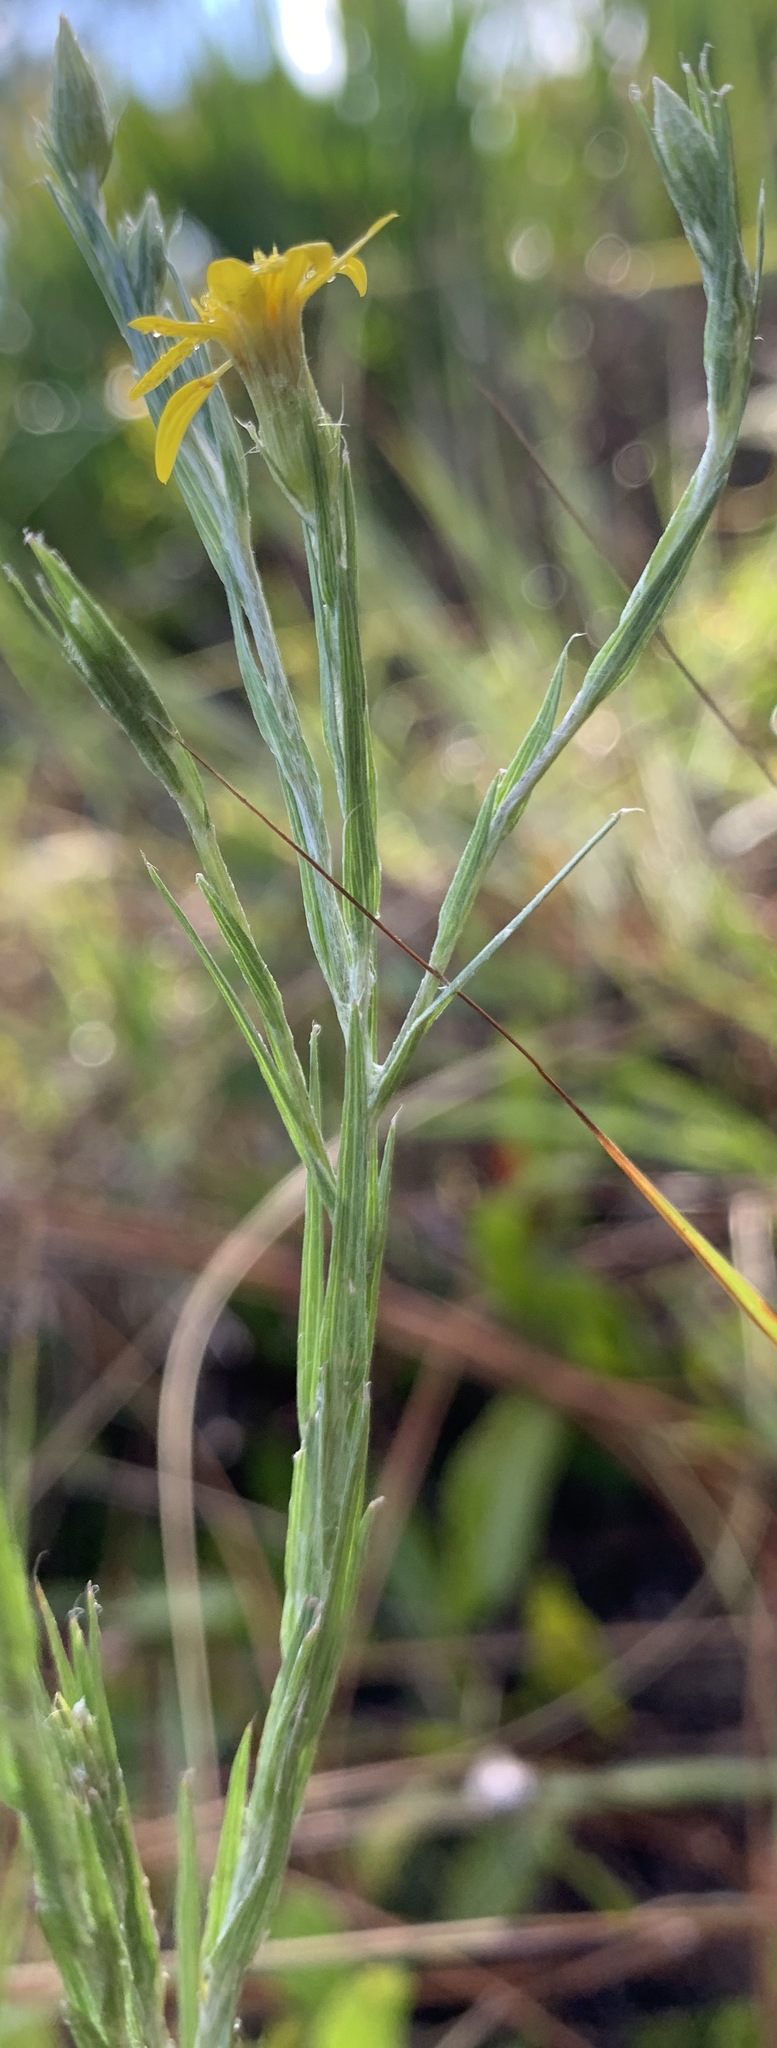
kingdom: Plantae
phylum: Tracheophyta
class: Magnoliopsida
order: Asterales
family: Asteraceae
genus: Pityopsis
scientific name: Pityopsis graminifolia
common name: Grass-leaf golden-aster
